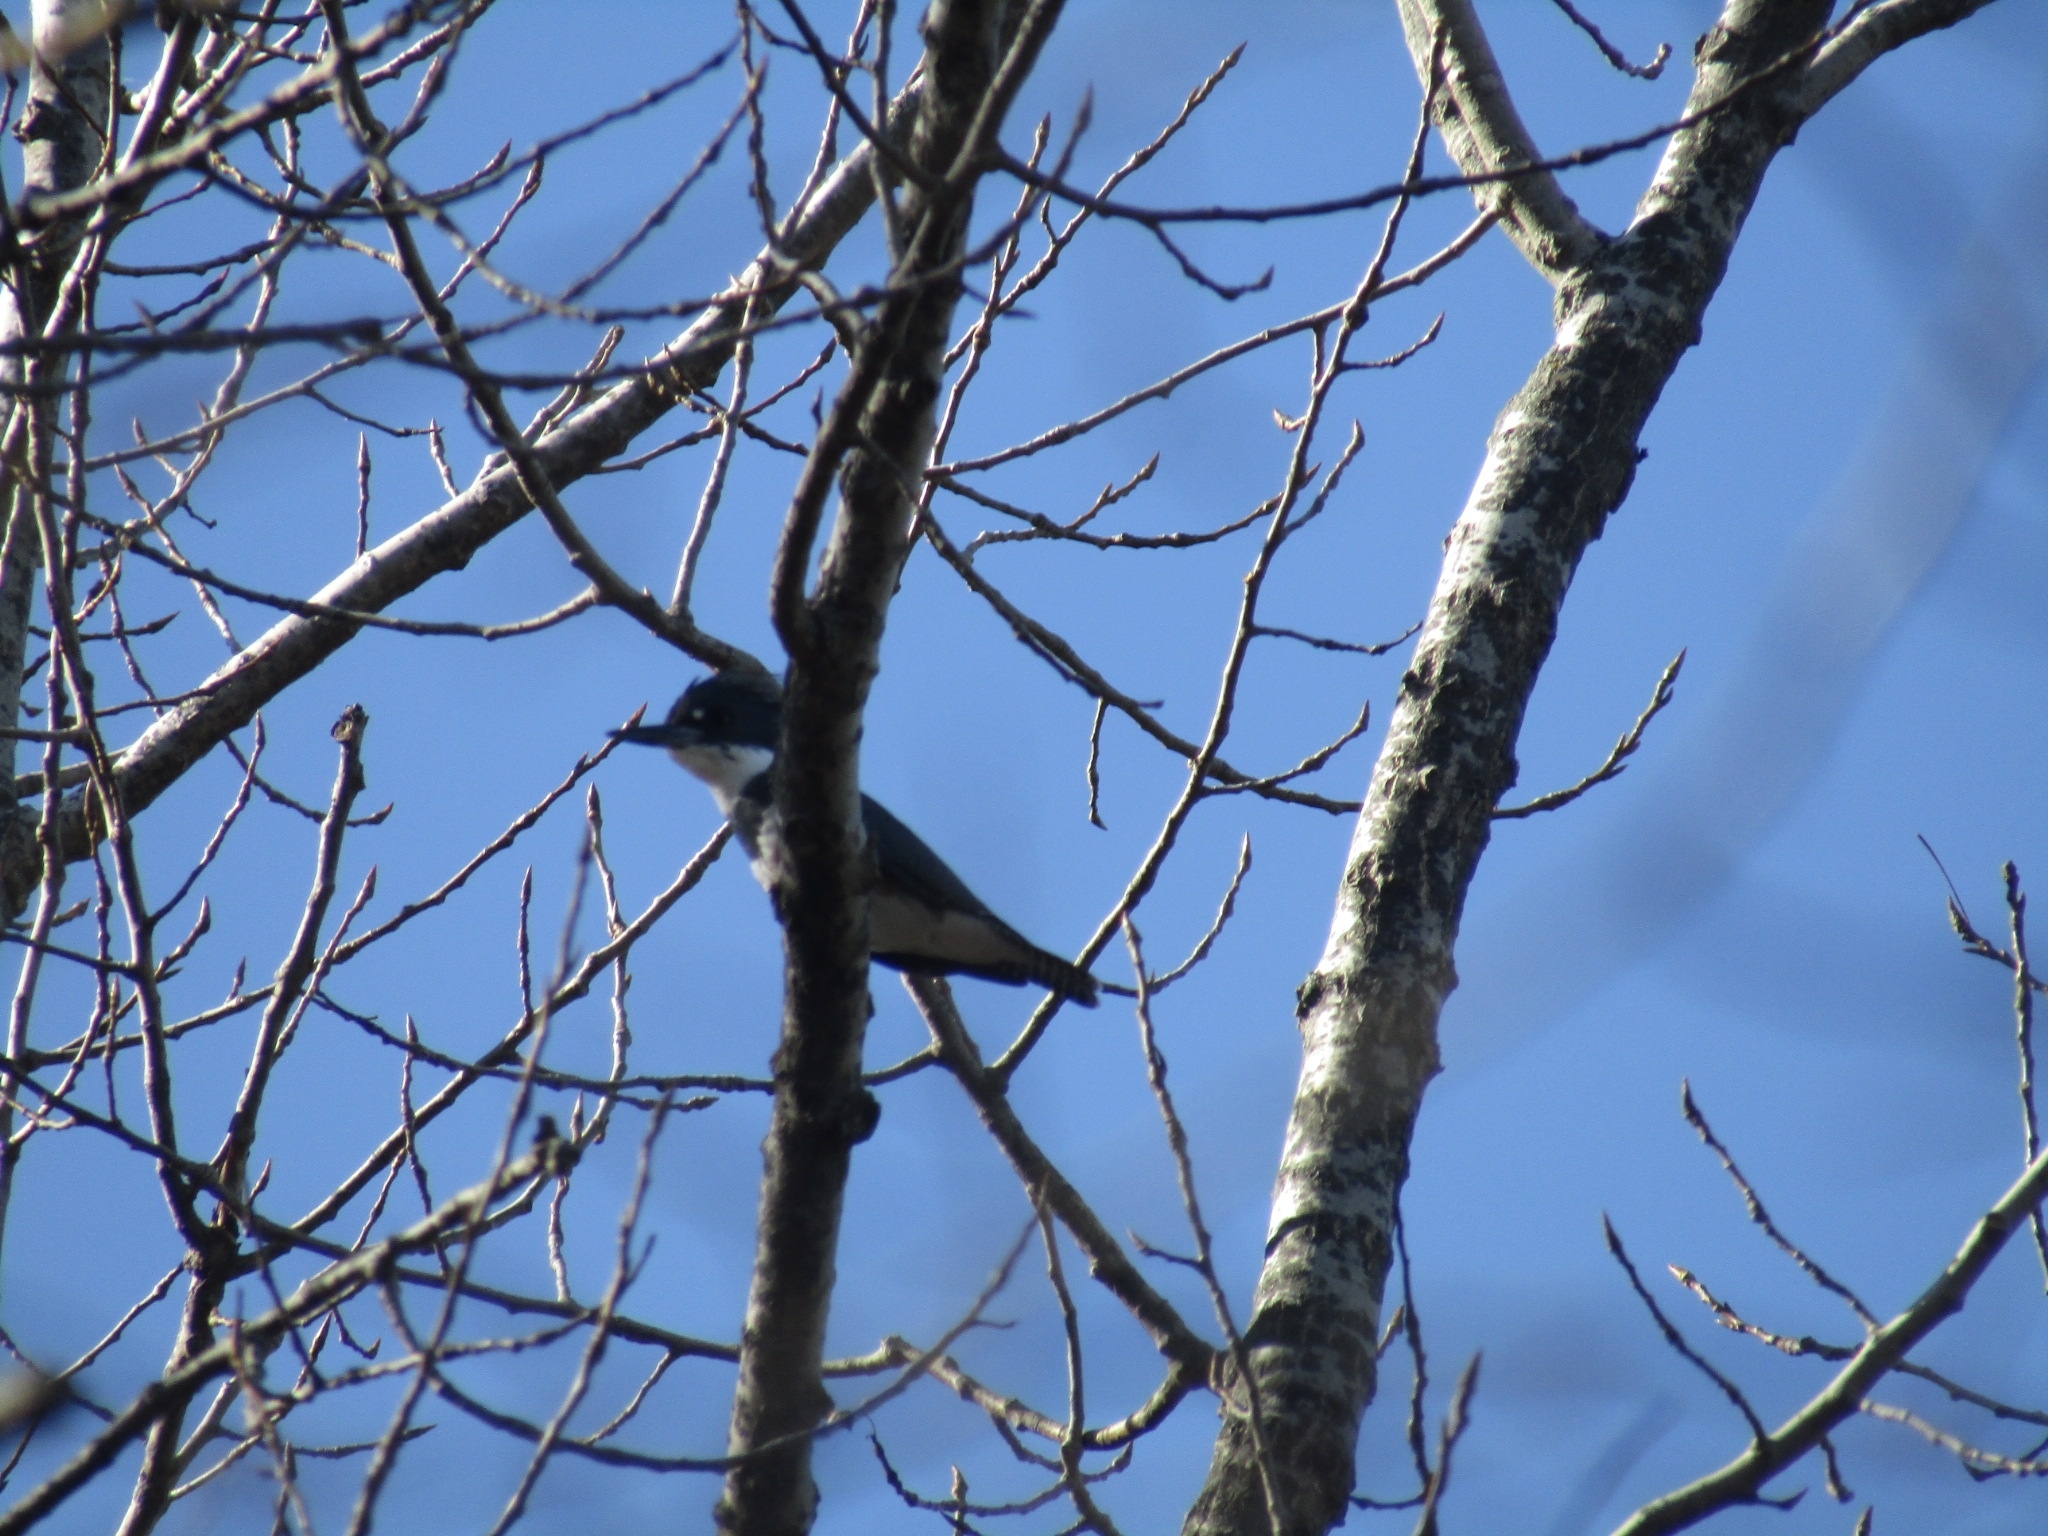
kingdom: Animalia
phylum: Chordata
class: Aves
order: Coraciiformes
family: Alcedinidae
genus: Megaceryle
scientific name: Megaceryle alcyon
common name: Belted kingfisher
